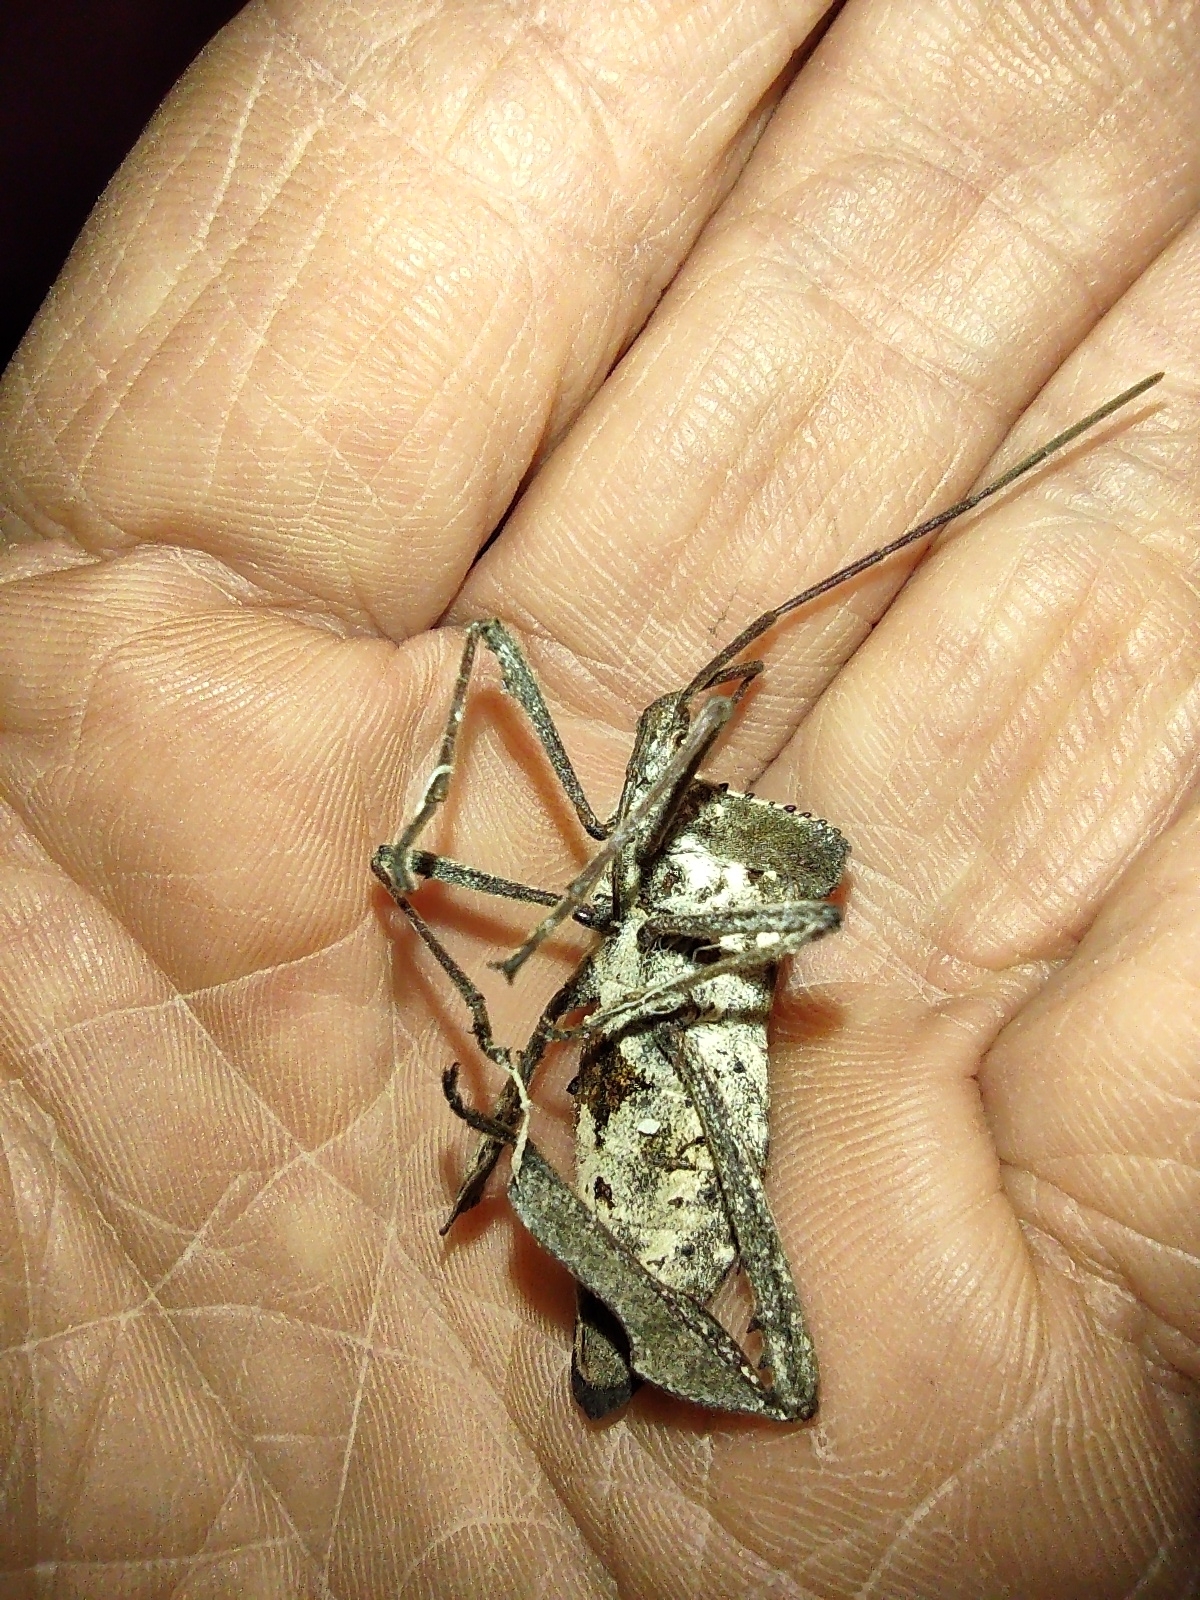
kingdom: Animalia
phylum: Arthropoda
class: Insecta
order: Hemiptera
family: Coreidae
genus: Acanthocephala
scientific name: Acanthocephala declivis
